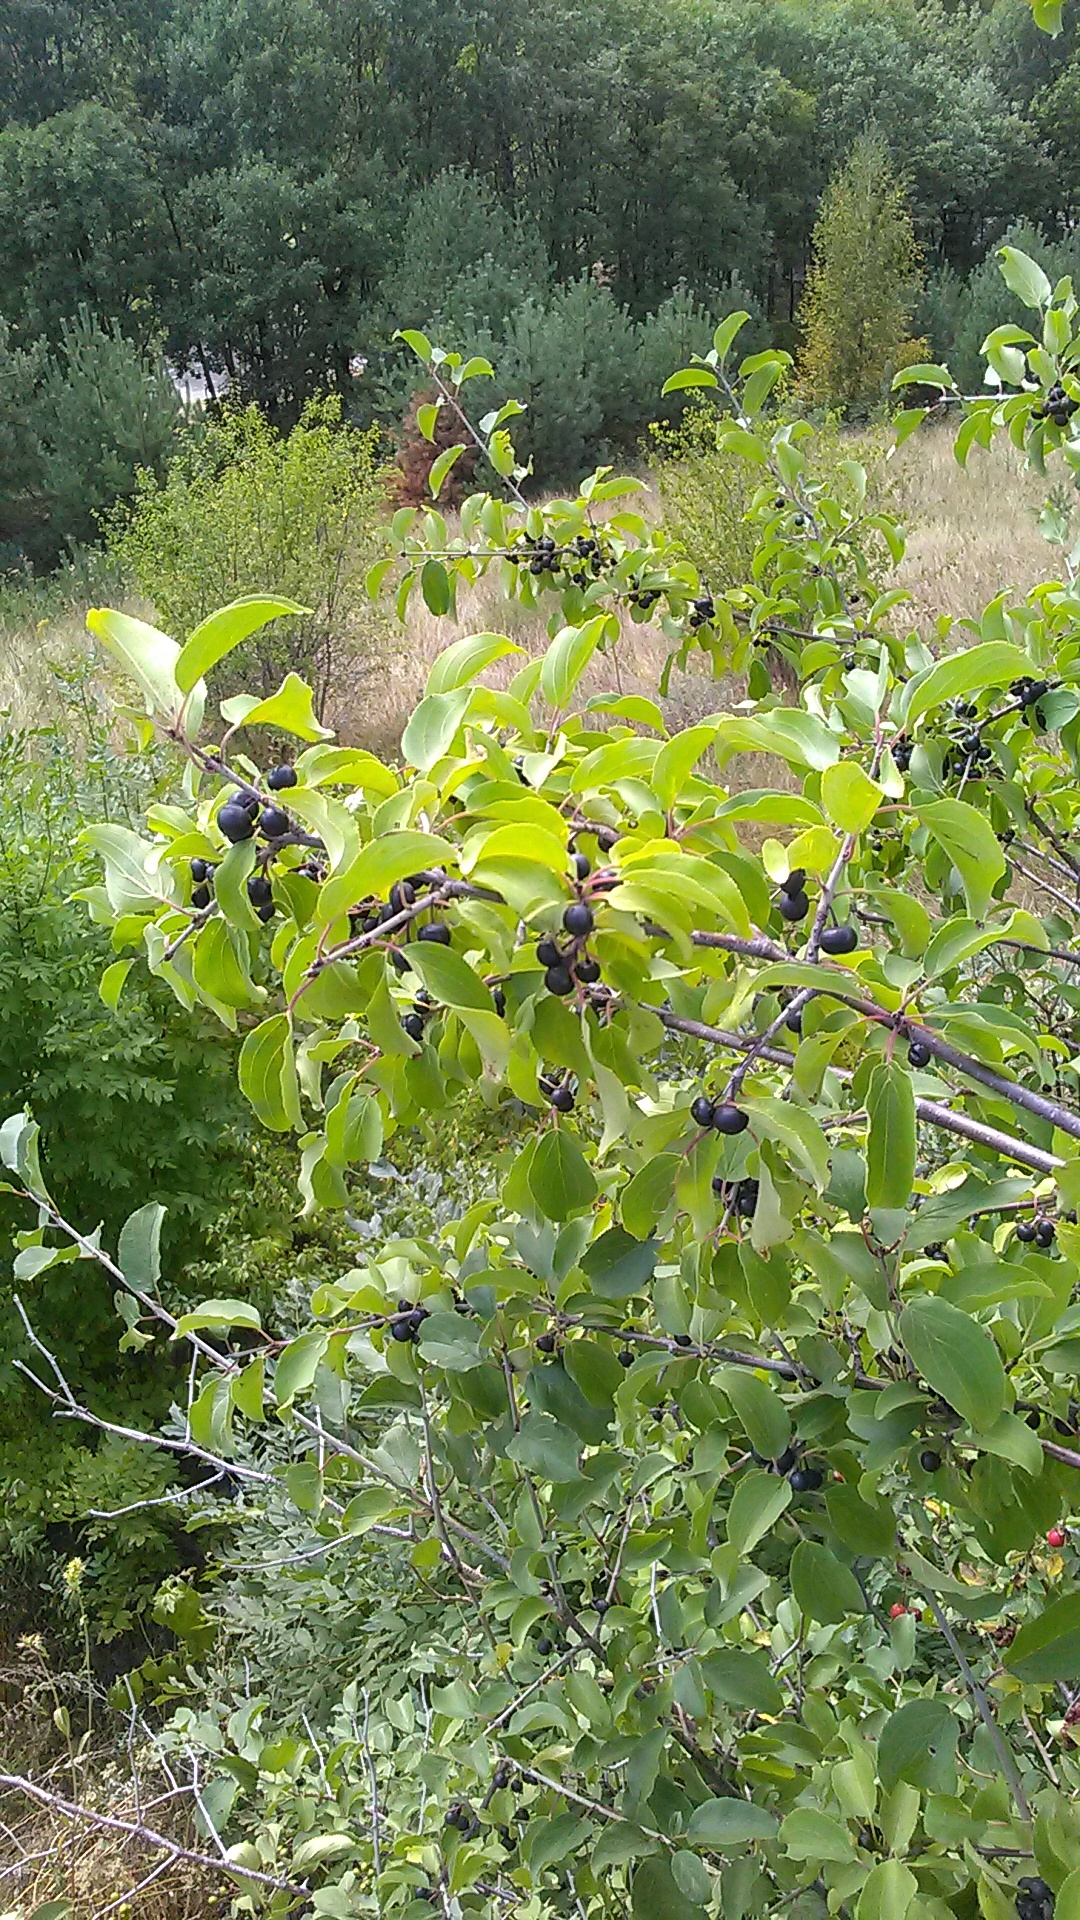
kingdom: Plantae
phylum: Tracheophyta
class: Magnoliopsida
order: Rosales
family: Rhamnaceae
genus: Rhamnus
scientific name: Rhamnus cathartica
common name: Common buckthorn
